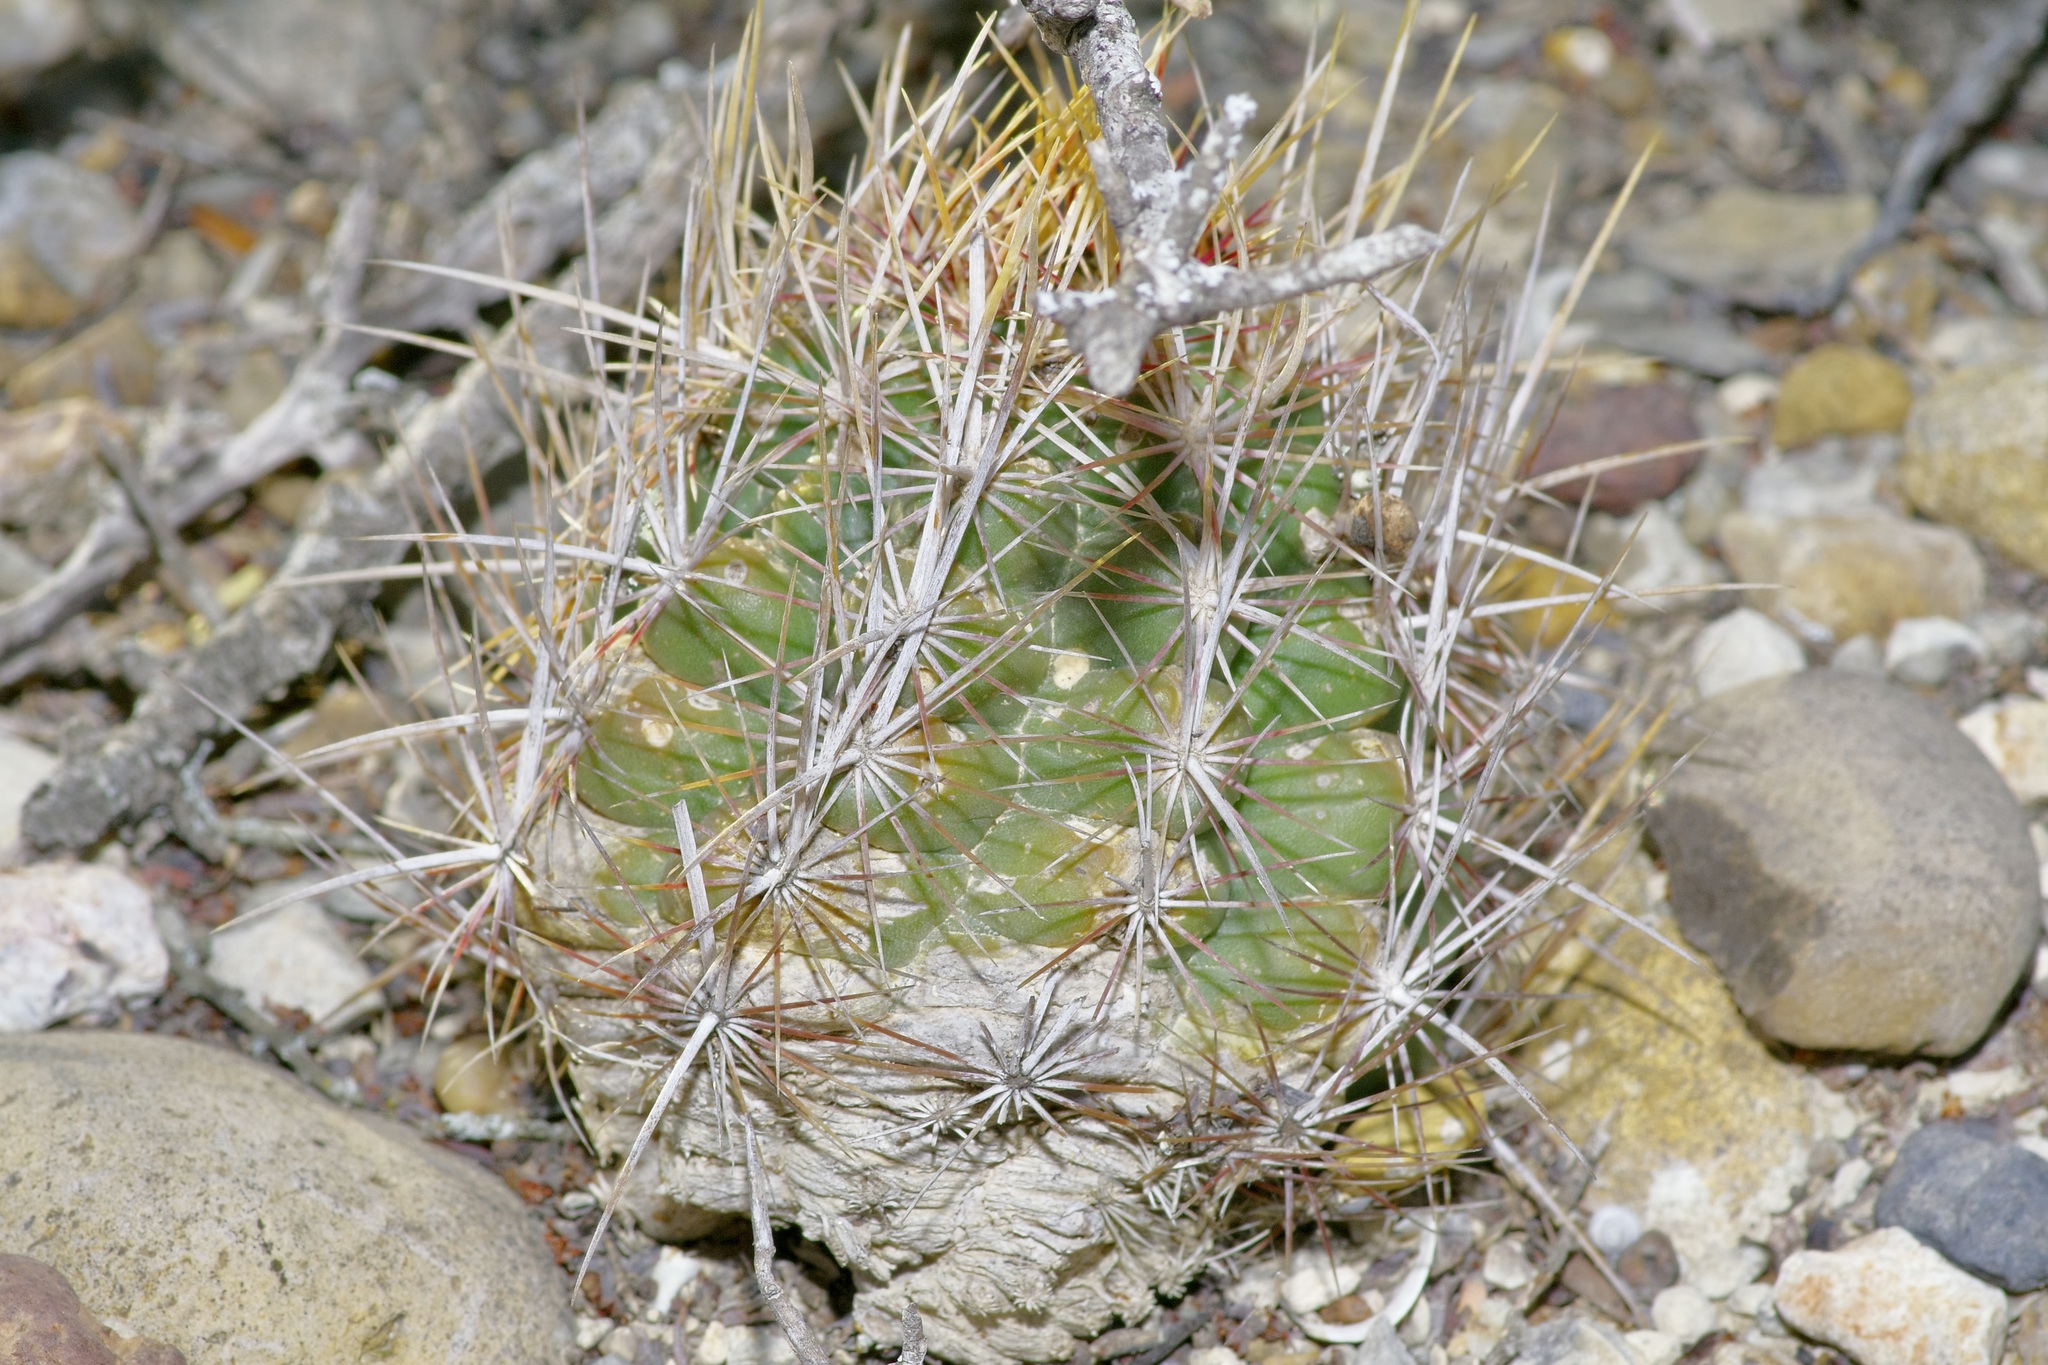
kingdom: Plantae
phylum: Tracheophyta
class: Magnoliopsida
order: Caryophyllales
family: Cactaceae
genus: Thelocactus
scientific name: Thelocactus bicolor
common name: Glory of texas
